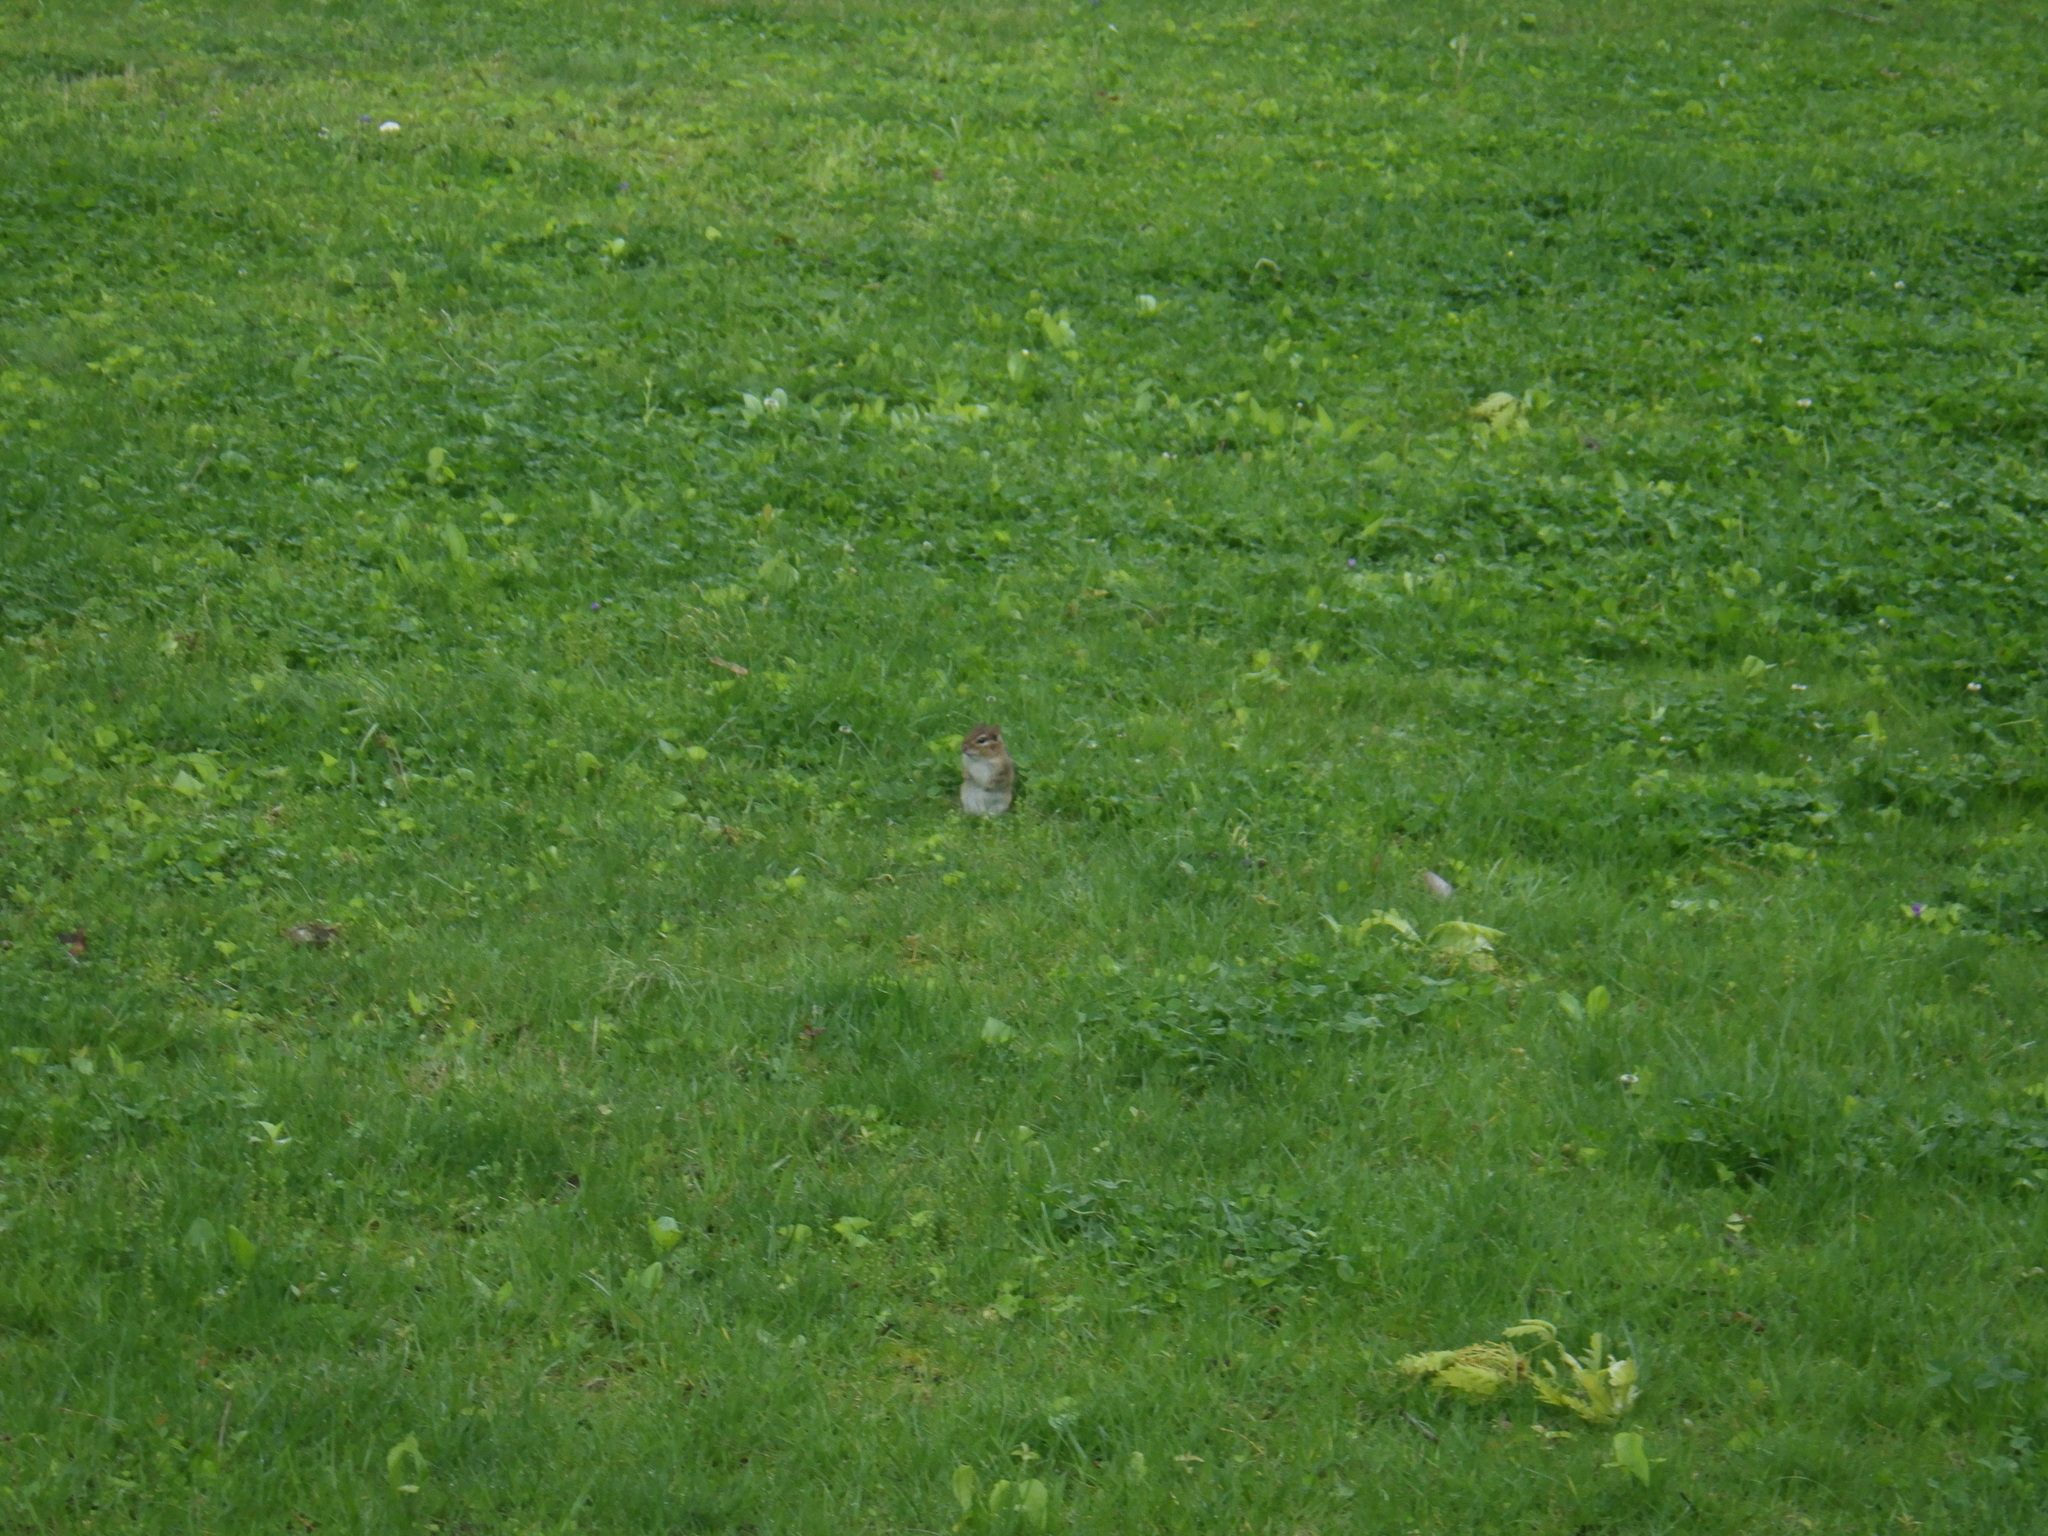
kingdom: Animalia
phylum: Chordata
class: Mammalia
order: Rodentia
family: Sciuridae
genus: Tamias
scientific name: Tamias striatus
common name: Eastern chipmunk
